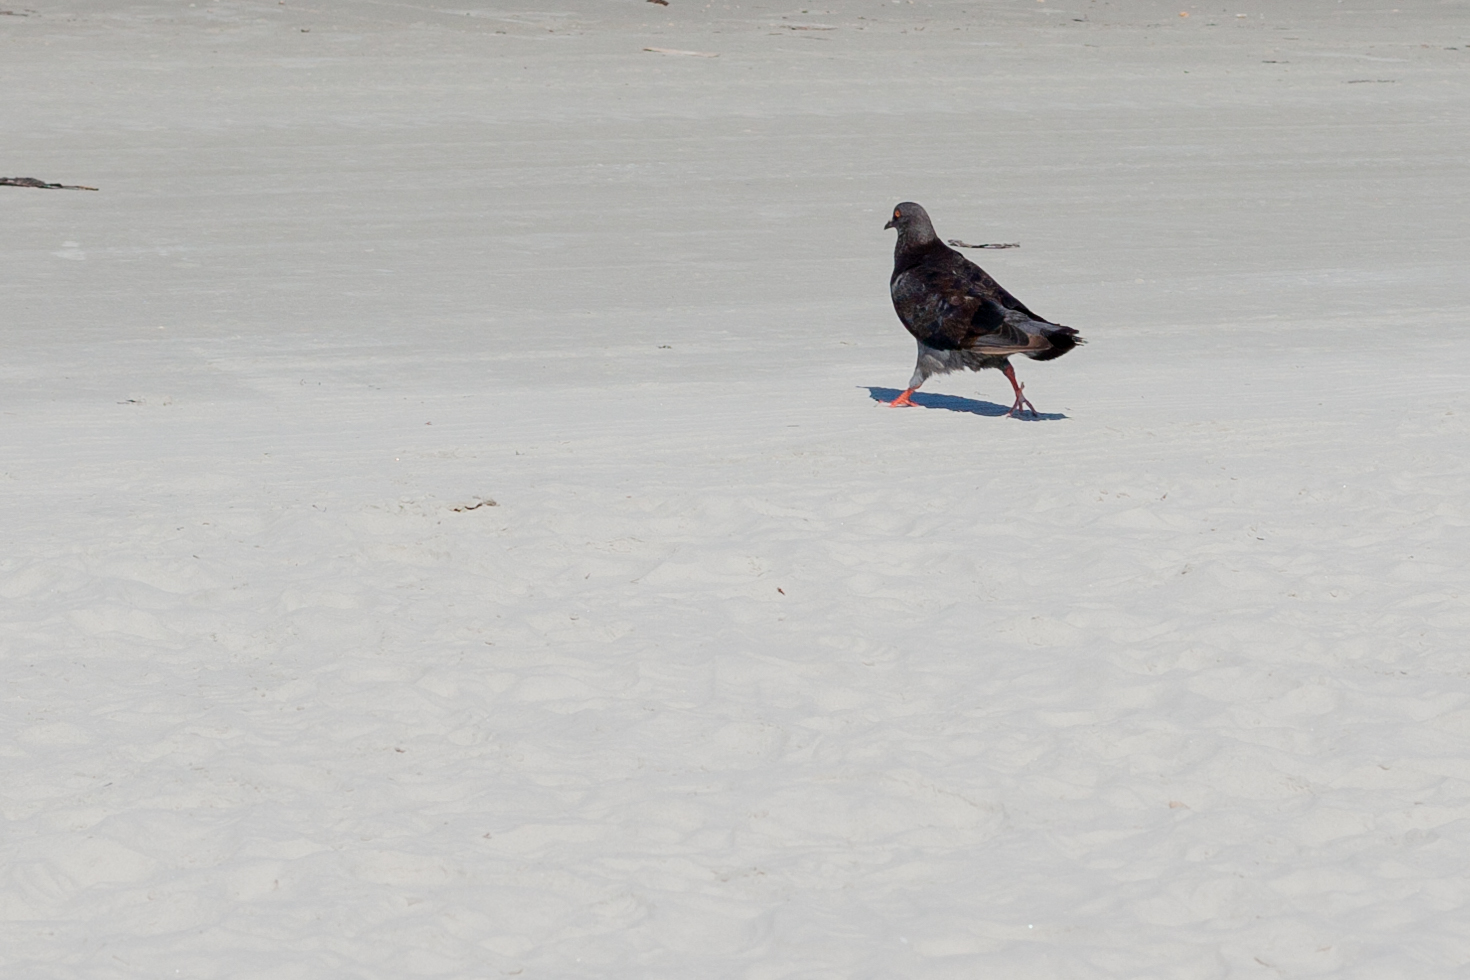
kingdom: Animalia
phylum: Chordata
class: Aves
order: Columbiformes
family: Columbidae
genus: Columba
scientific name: Columba livia
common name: Rock pigeon
